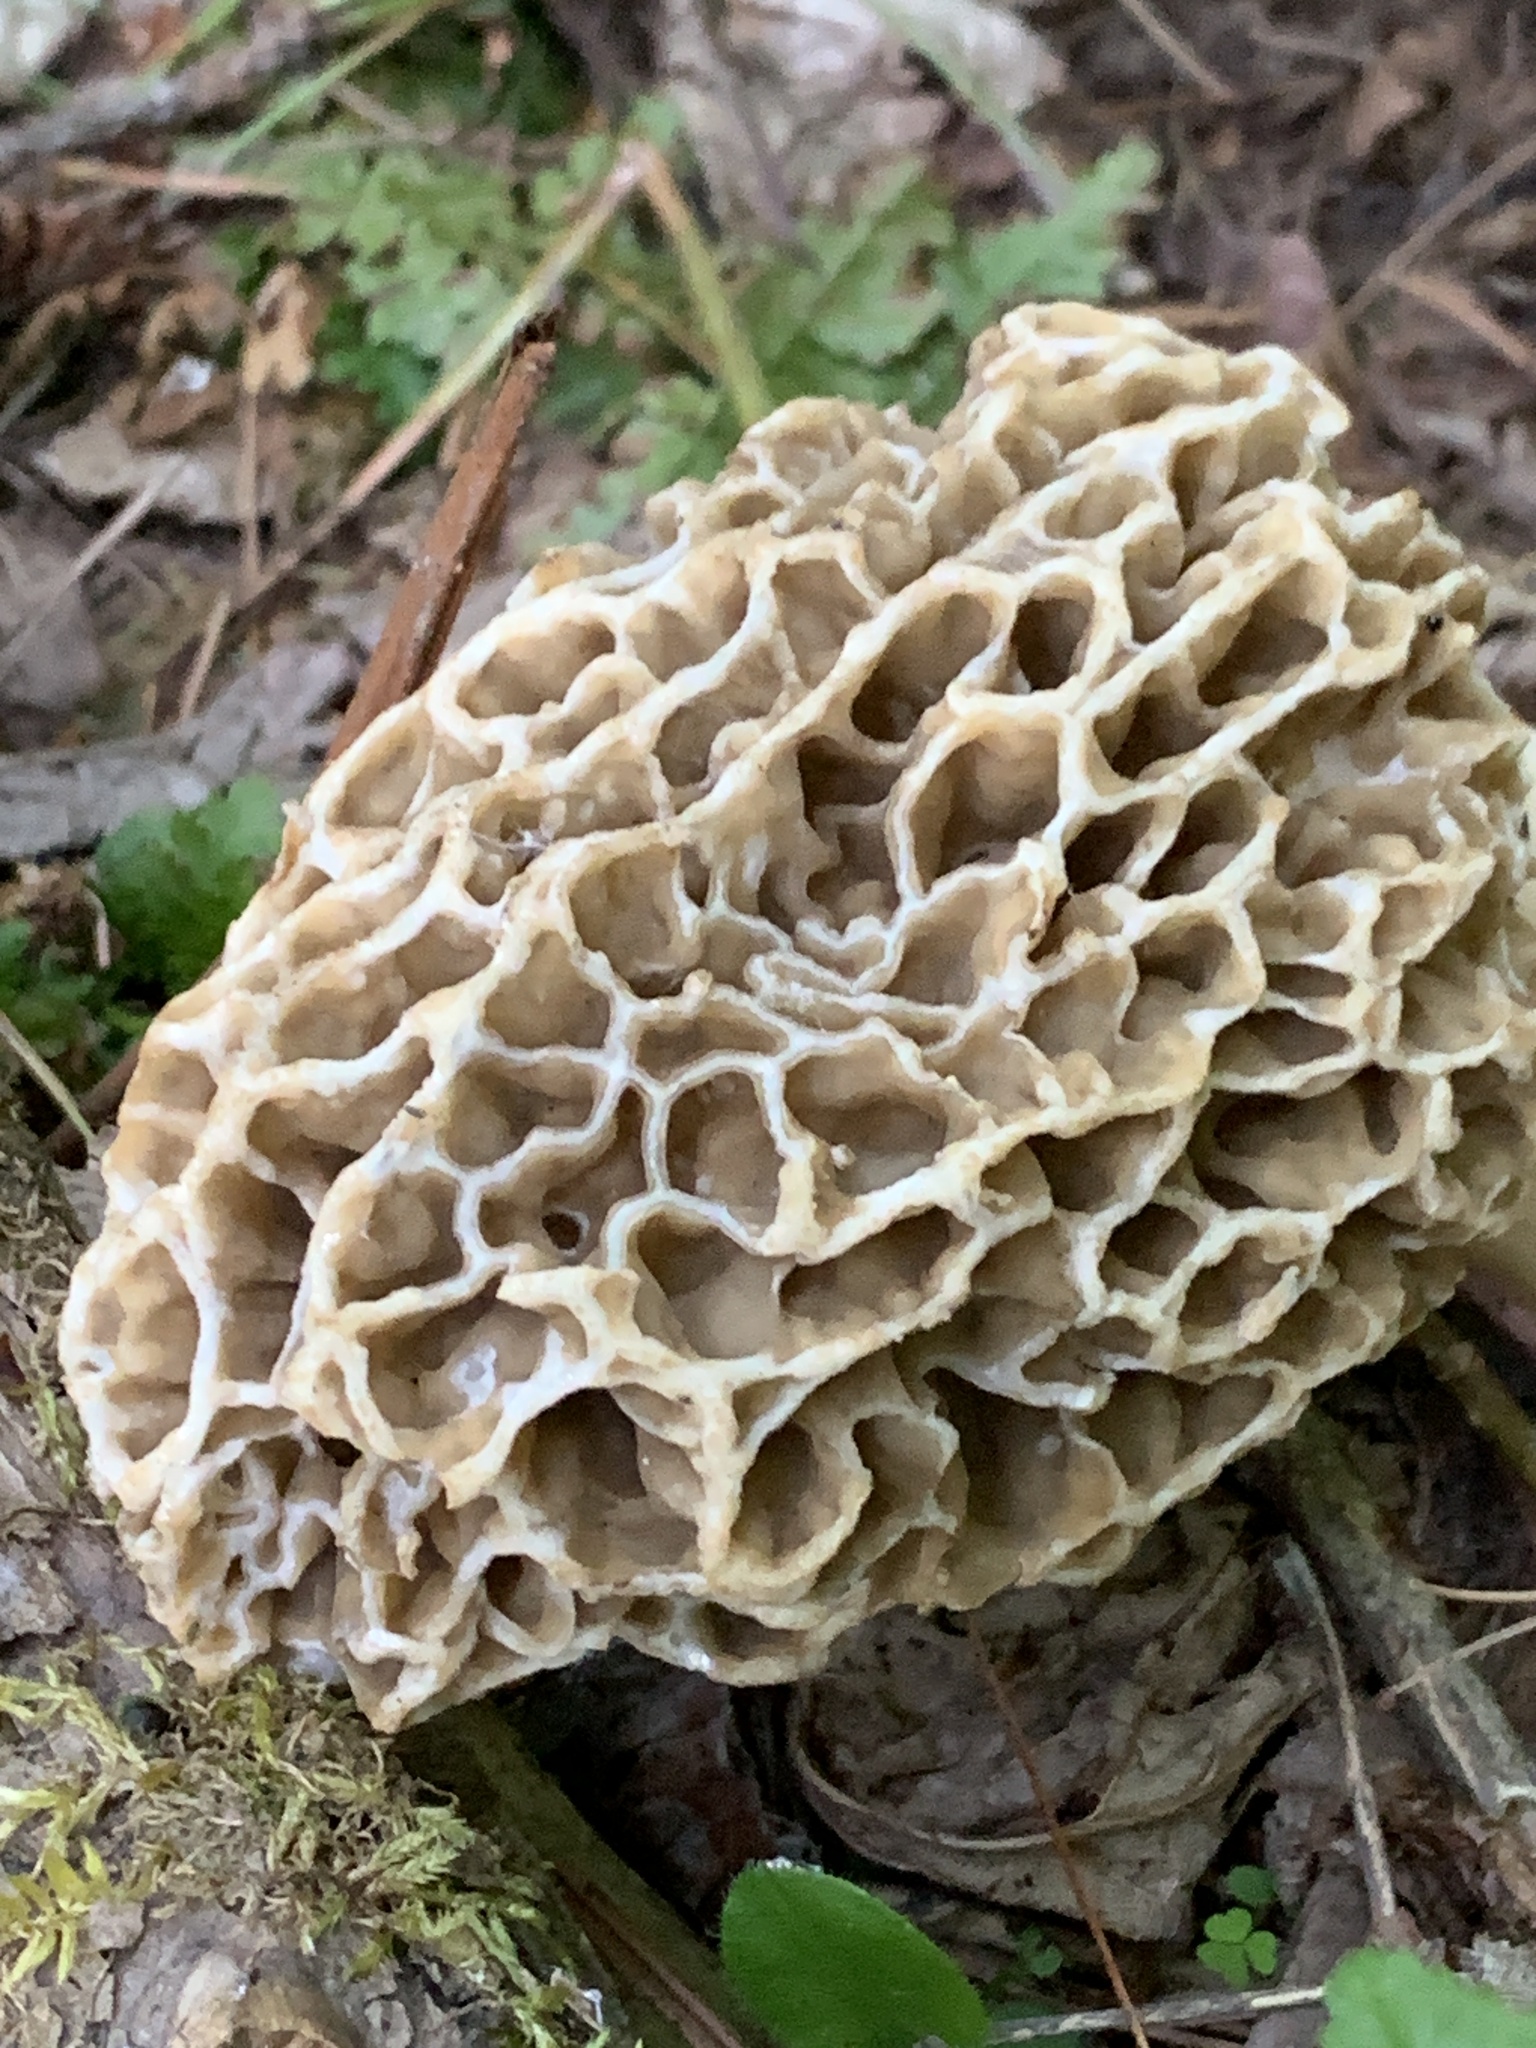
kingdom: Fungi
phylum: Ascomycota
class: Pezizomycetes
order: Pezizales
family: Morchellaceae
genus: Morchella
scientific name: Morchella americana
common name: White morel
